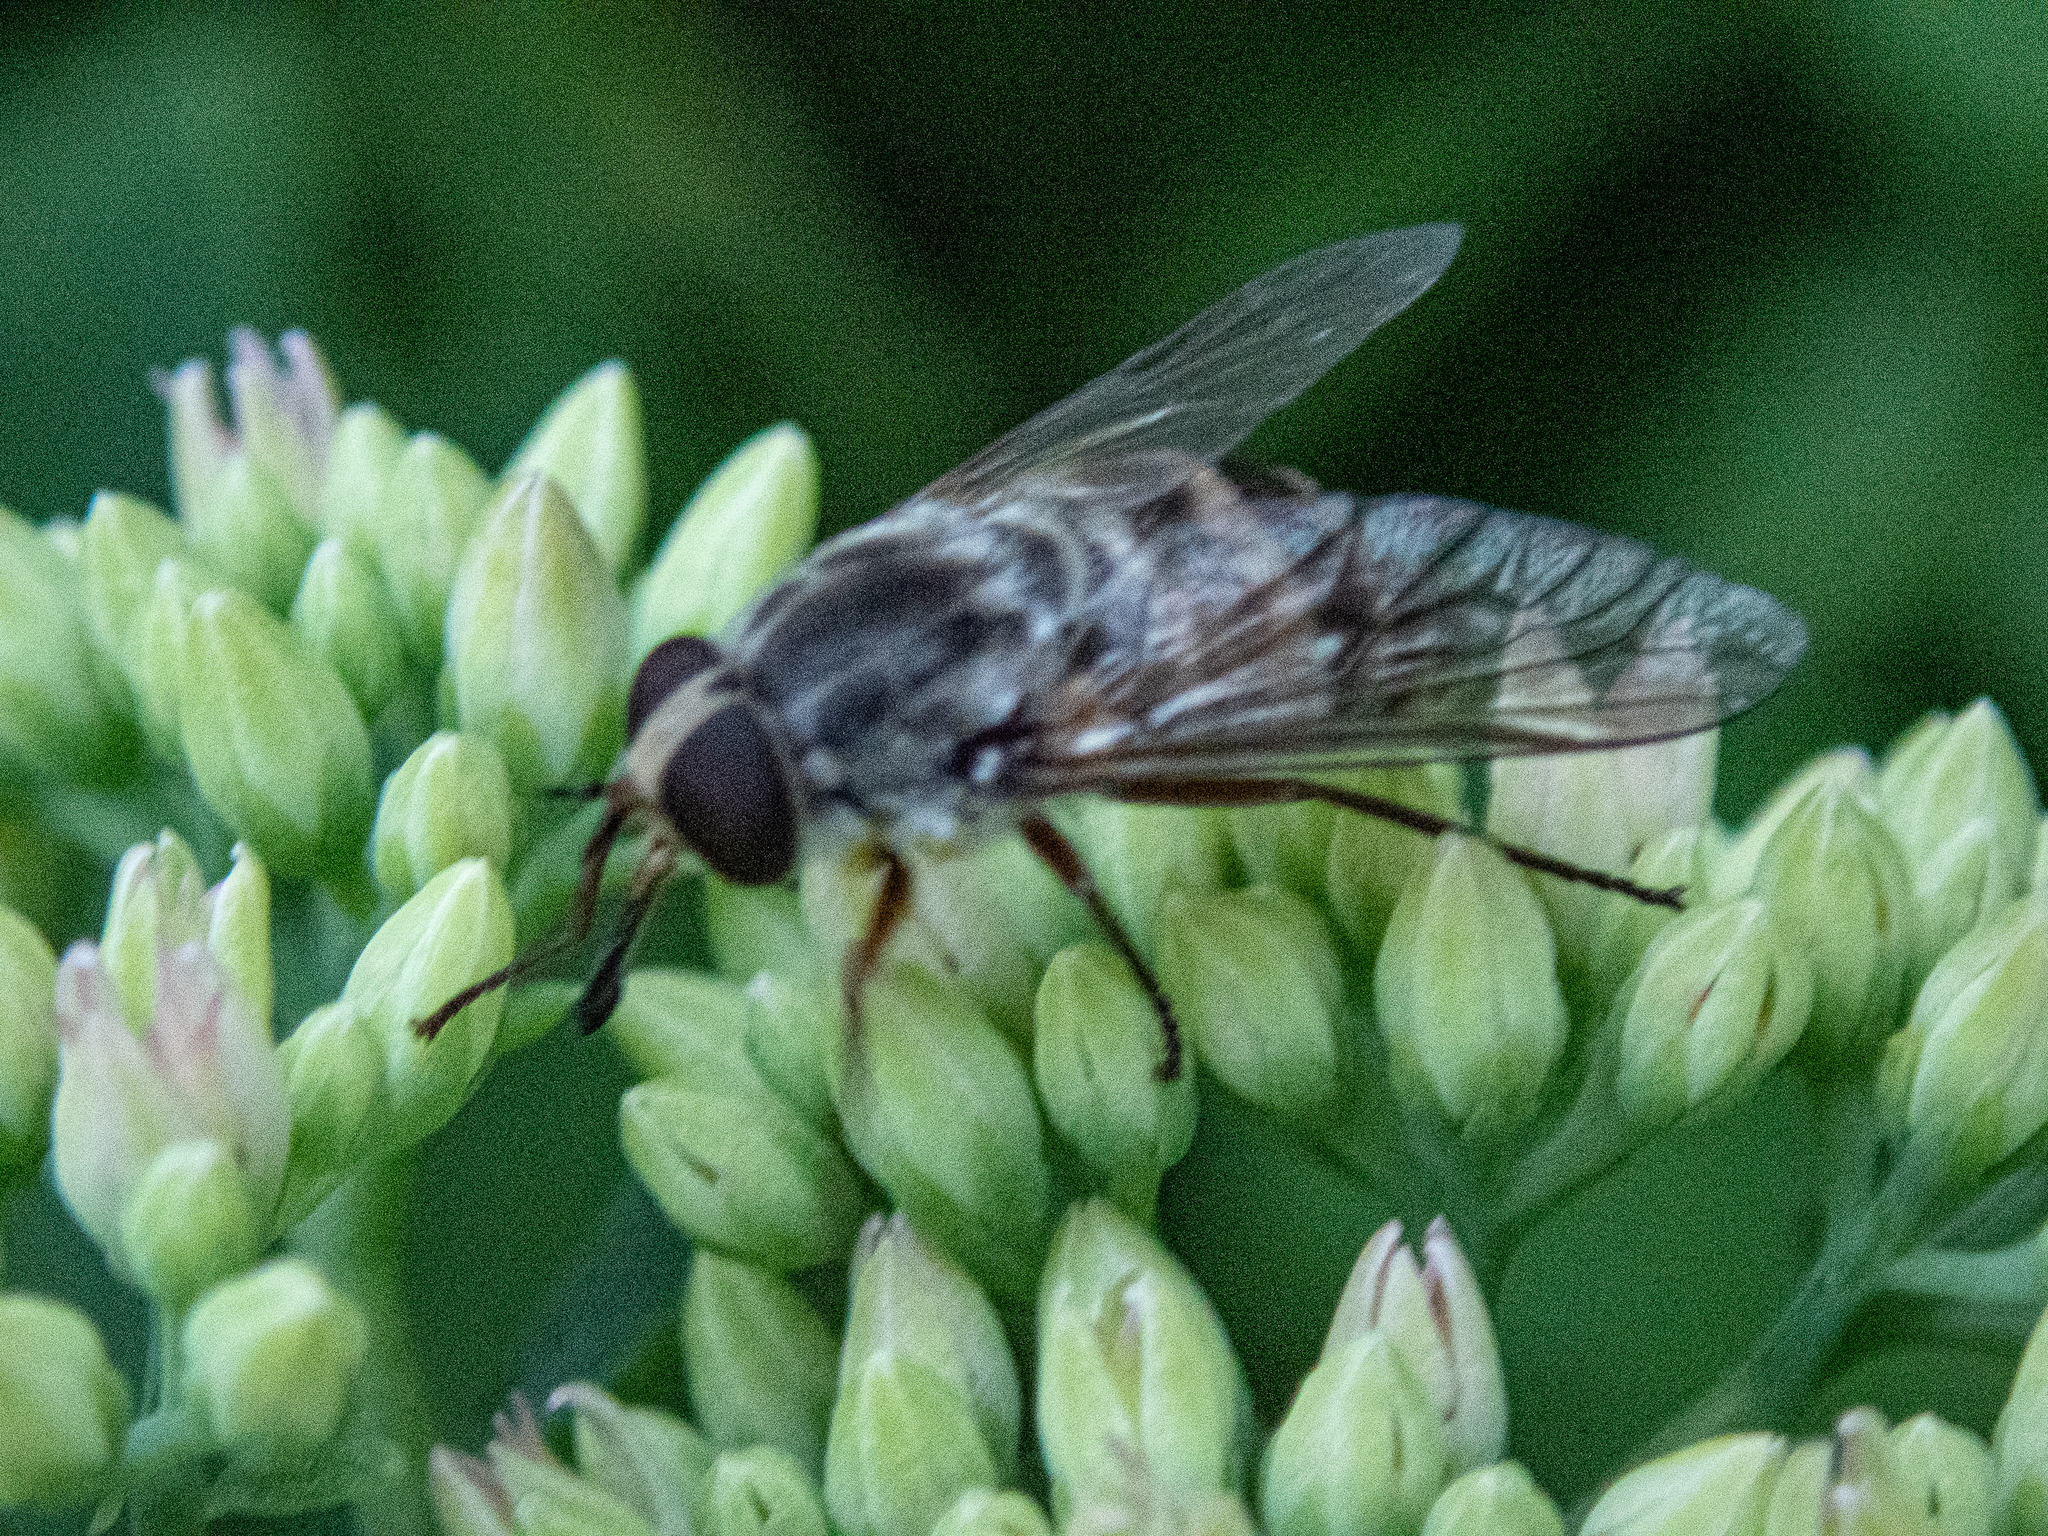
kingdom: Animalia
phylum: Arthropoda
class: Insecta
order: Diptera
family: Tabanidae
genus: Stonemyia
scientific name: Stonemyia rasa
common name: Shaved horse fly
